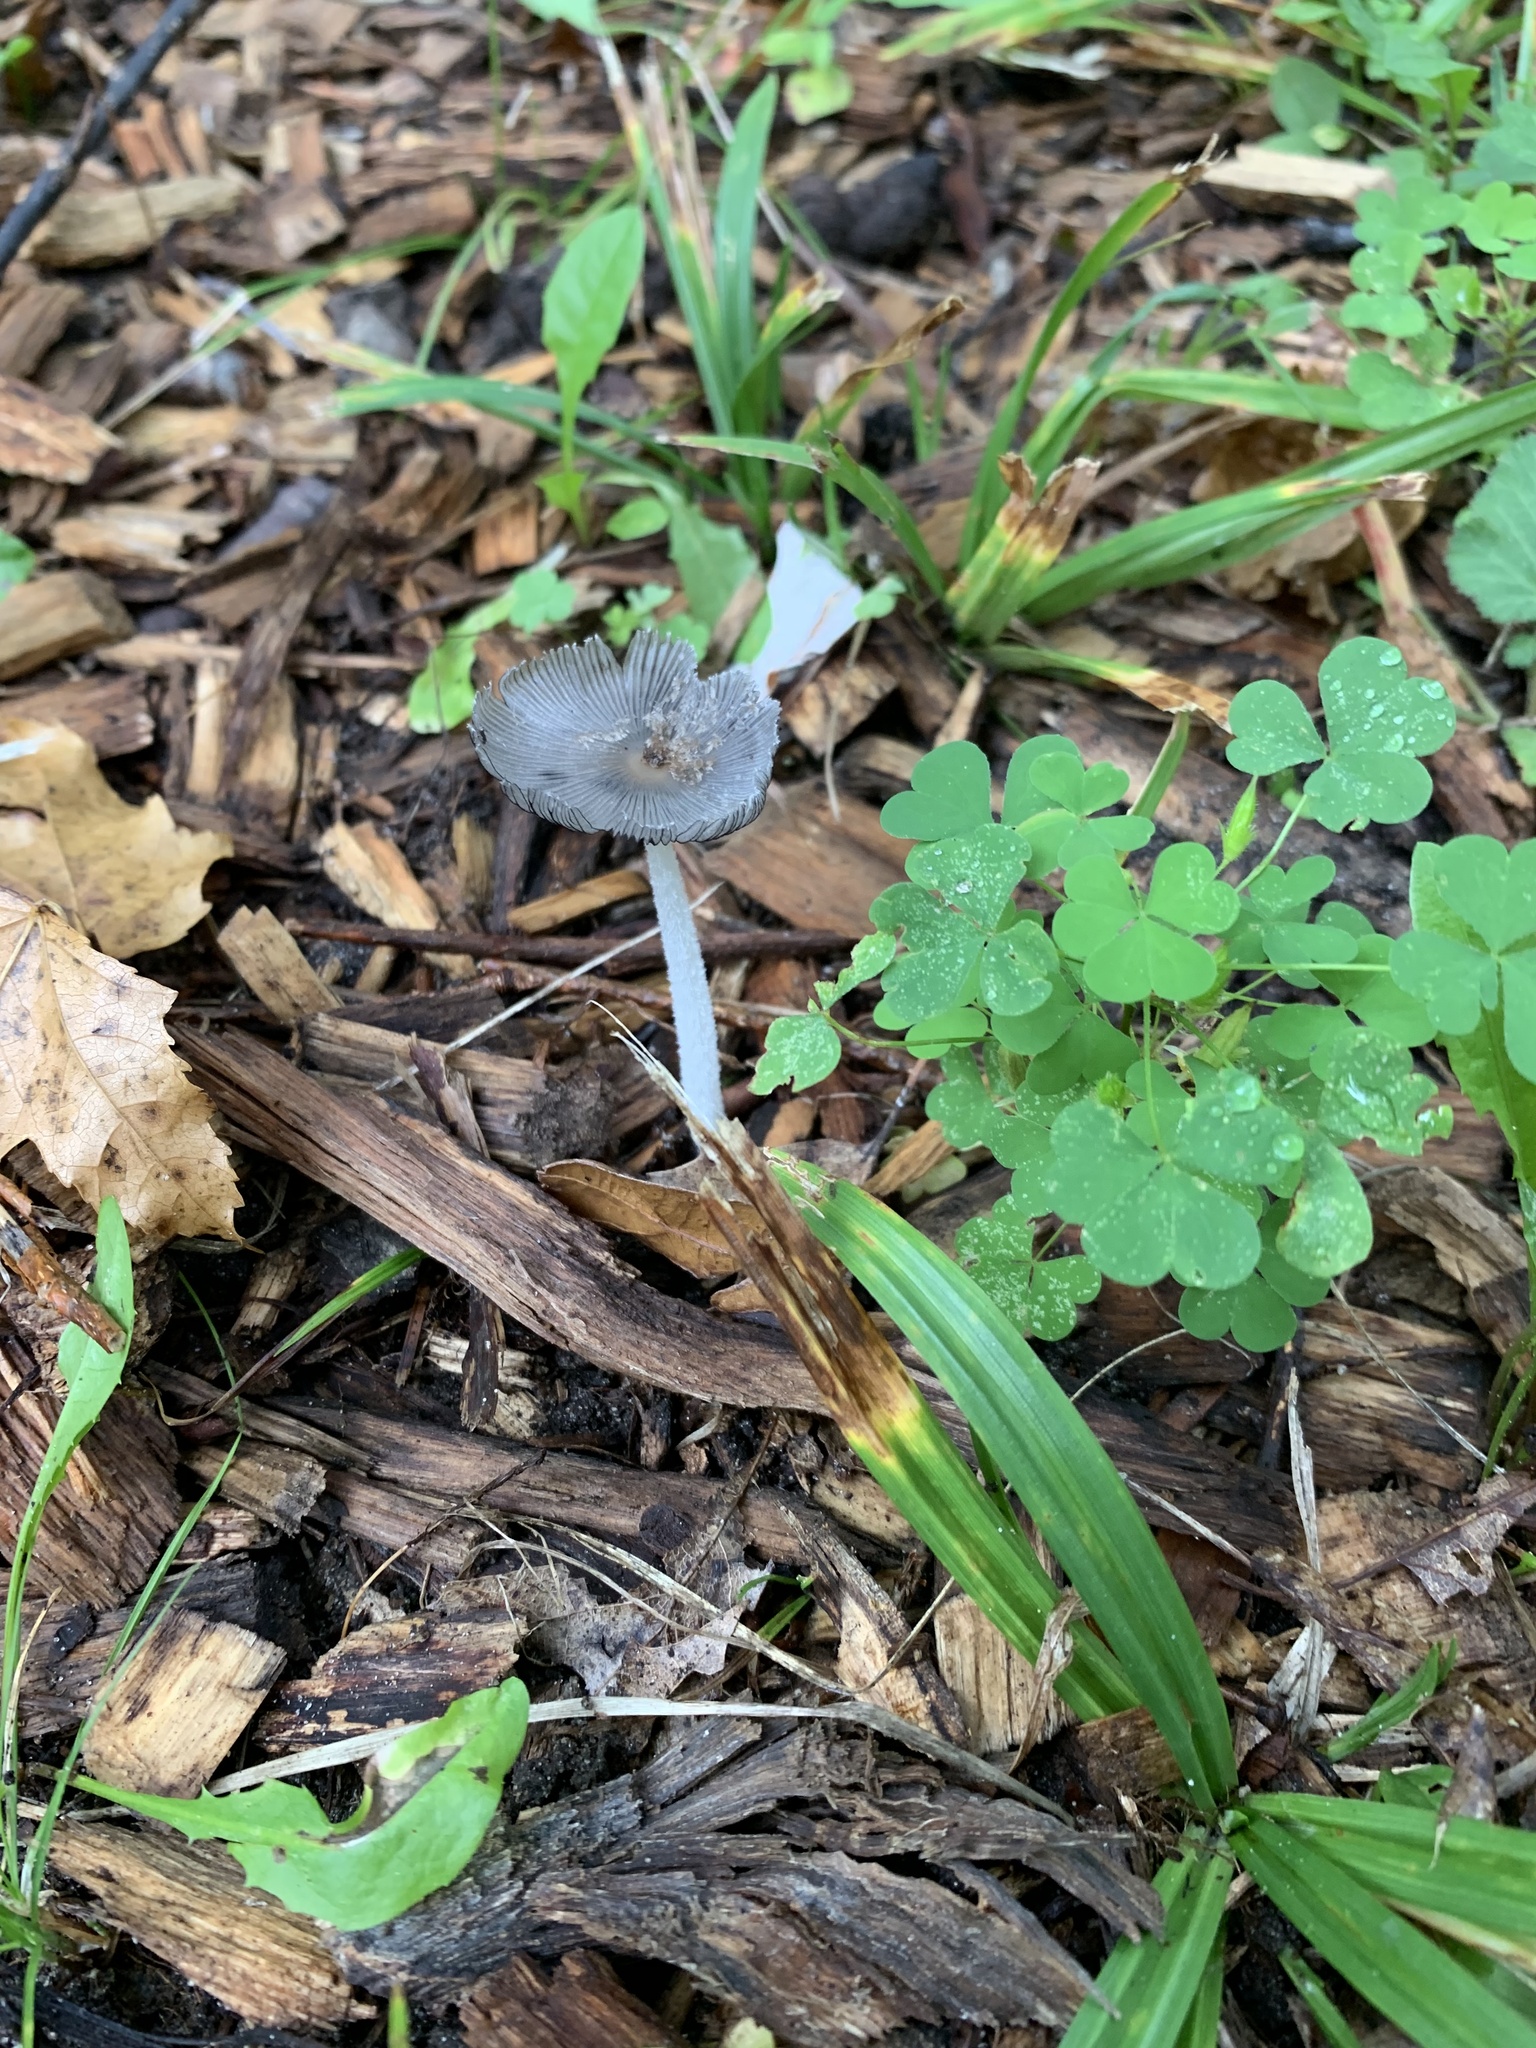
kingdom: Fungi
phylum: Basidiomycota
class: Agaricomycetes
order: Agaricales
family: Psathyrellaceae
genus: Coprinopsis
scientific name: Coprinopsis lagopus
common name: Hare'sfoot inkcap
